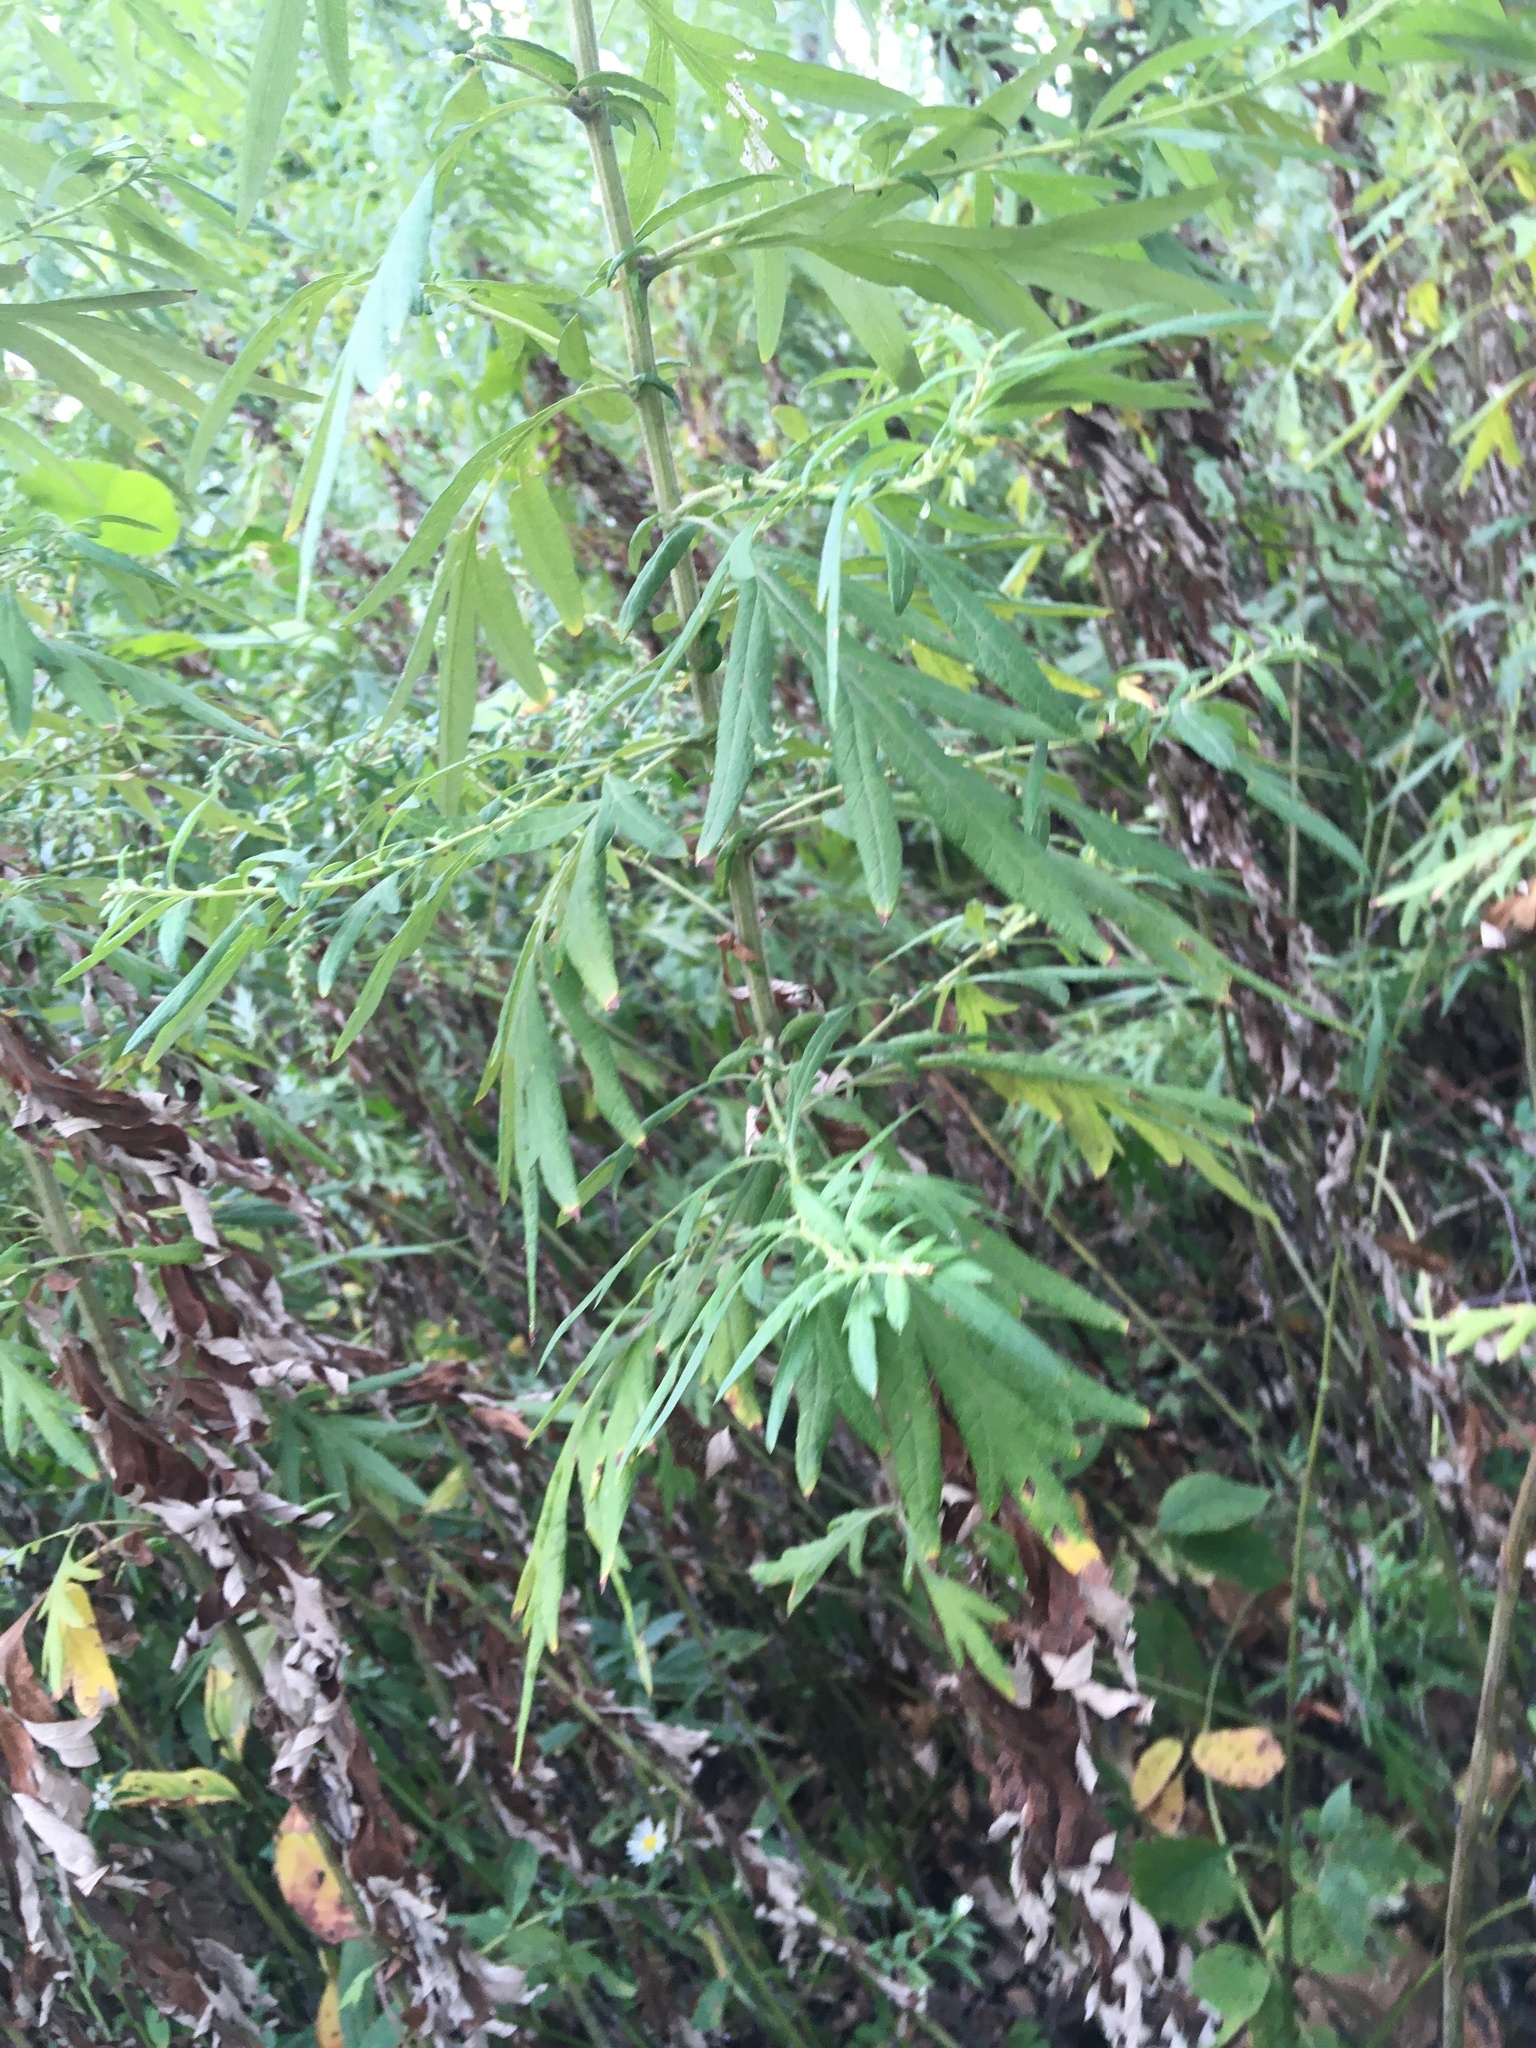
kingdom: Plantae
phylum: Tracheophyta
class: Magnoliopsida
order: Asterales
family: Asteraceae
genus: Artemisia
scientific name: Artemisia vulgaris
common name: Mugwort
